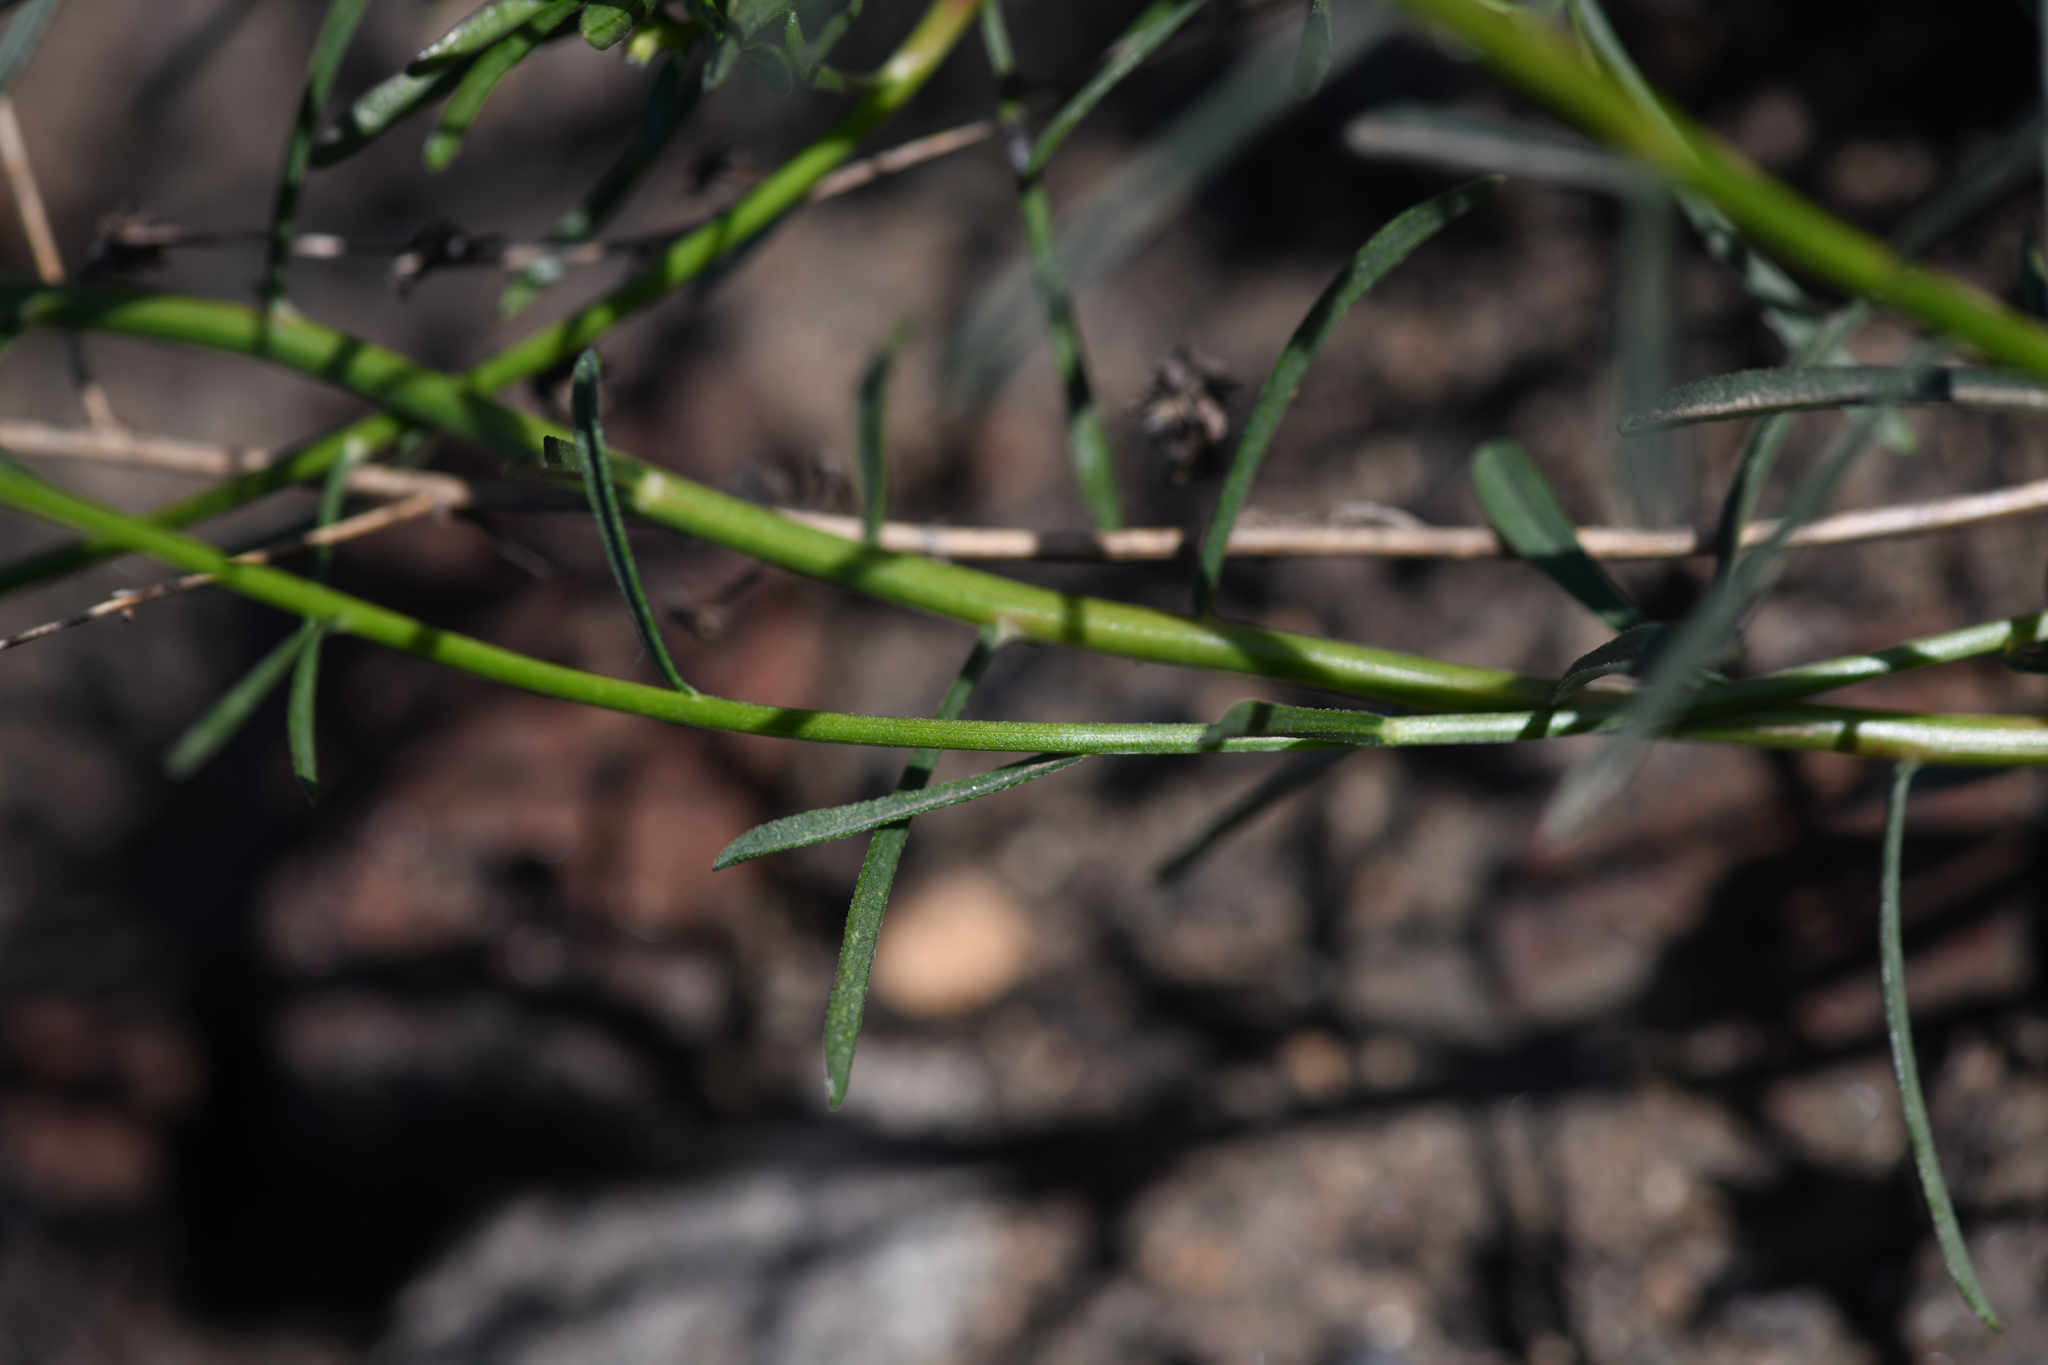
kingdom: Plantae
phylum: Tracheophyta
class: Magnoliopsida
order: Asterales
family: Asteraceae
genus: Erigeron
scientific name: Erigeron foliosus
